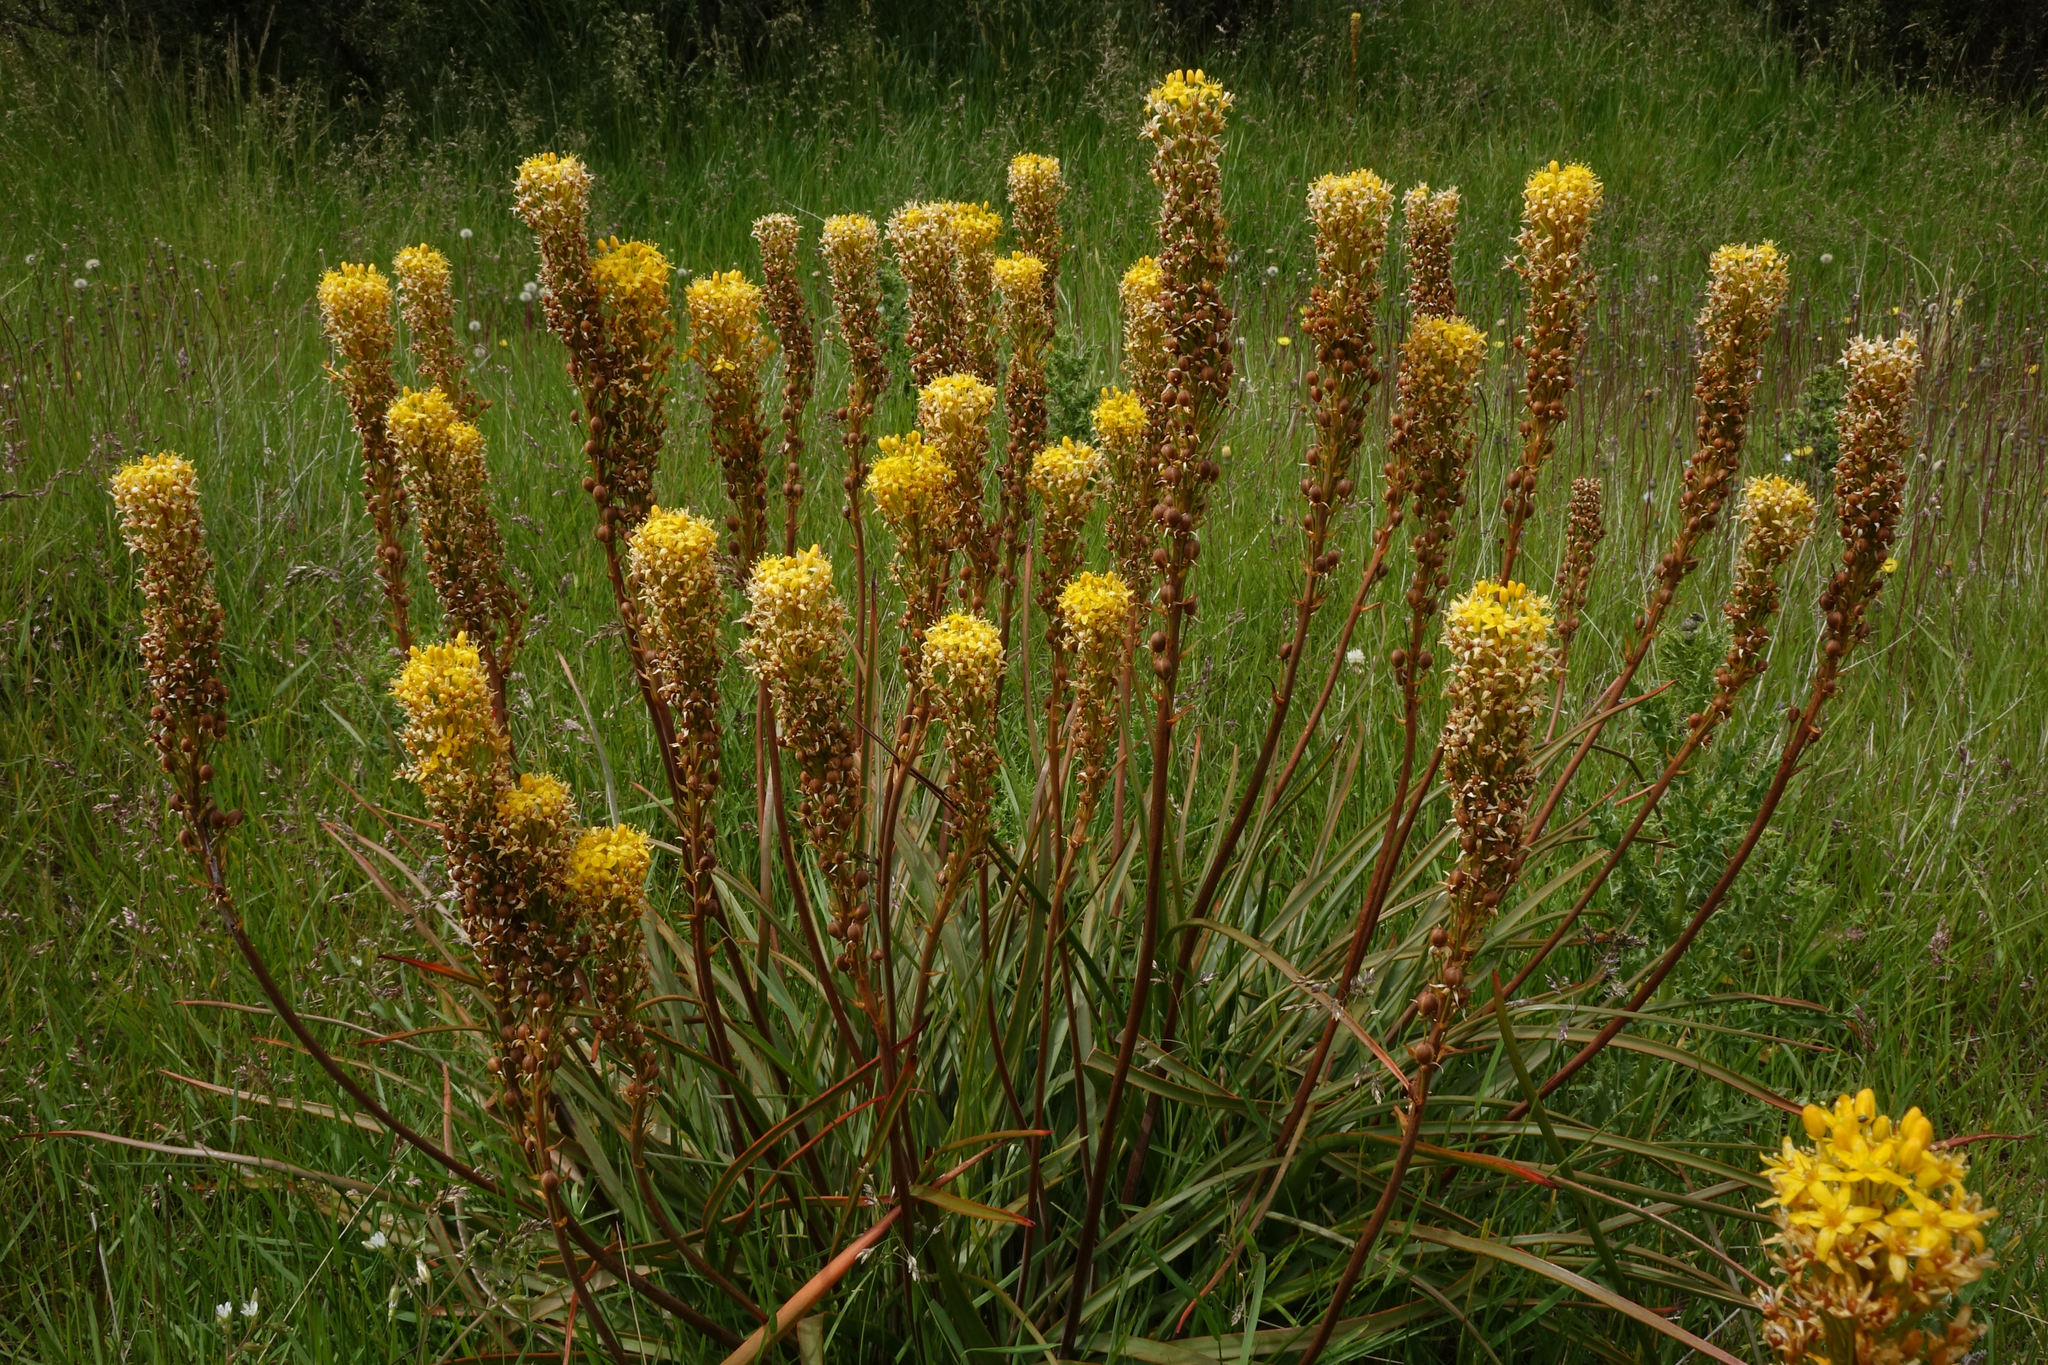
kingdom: Plantae
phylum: Tracheophyta
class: Liliopsida
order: Asparagales
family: Asphodelaceae
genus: Bulbinella
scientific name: Bulbinella angustifolia
